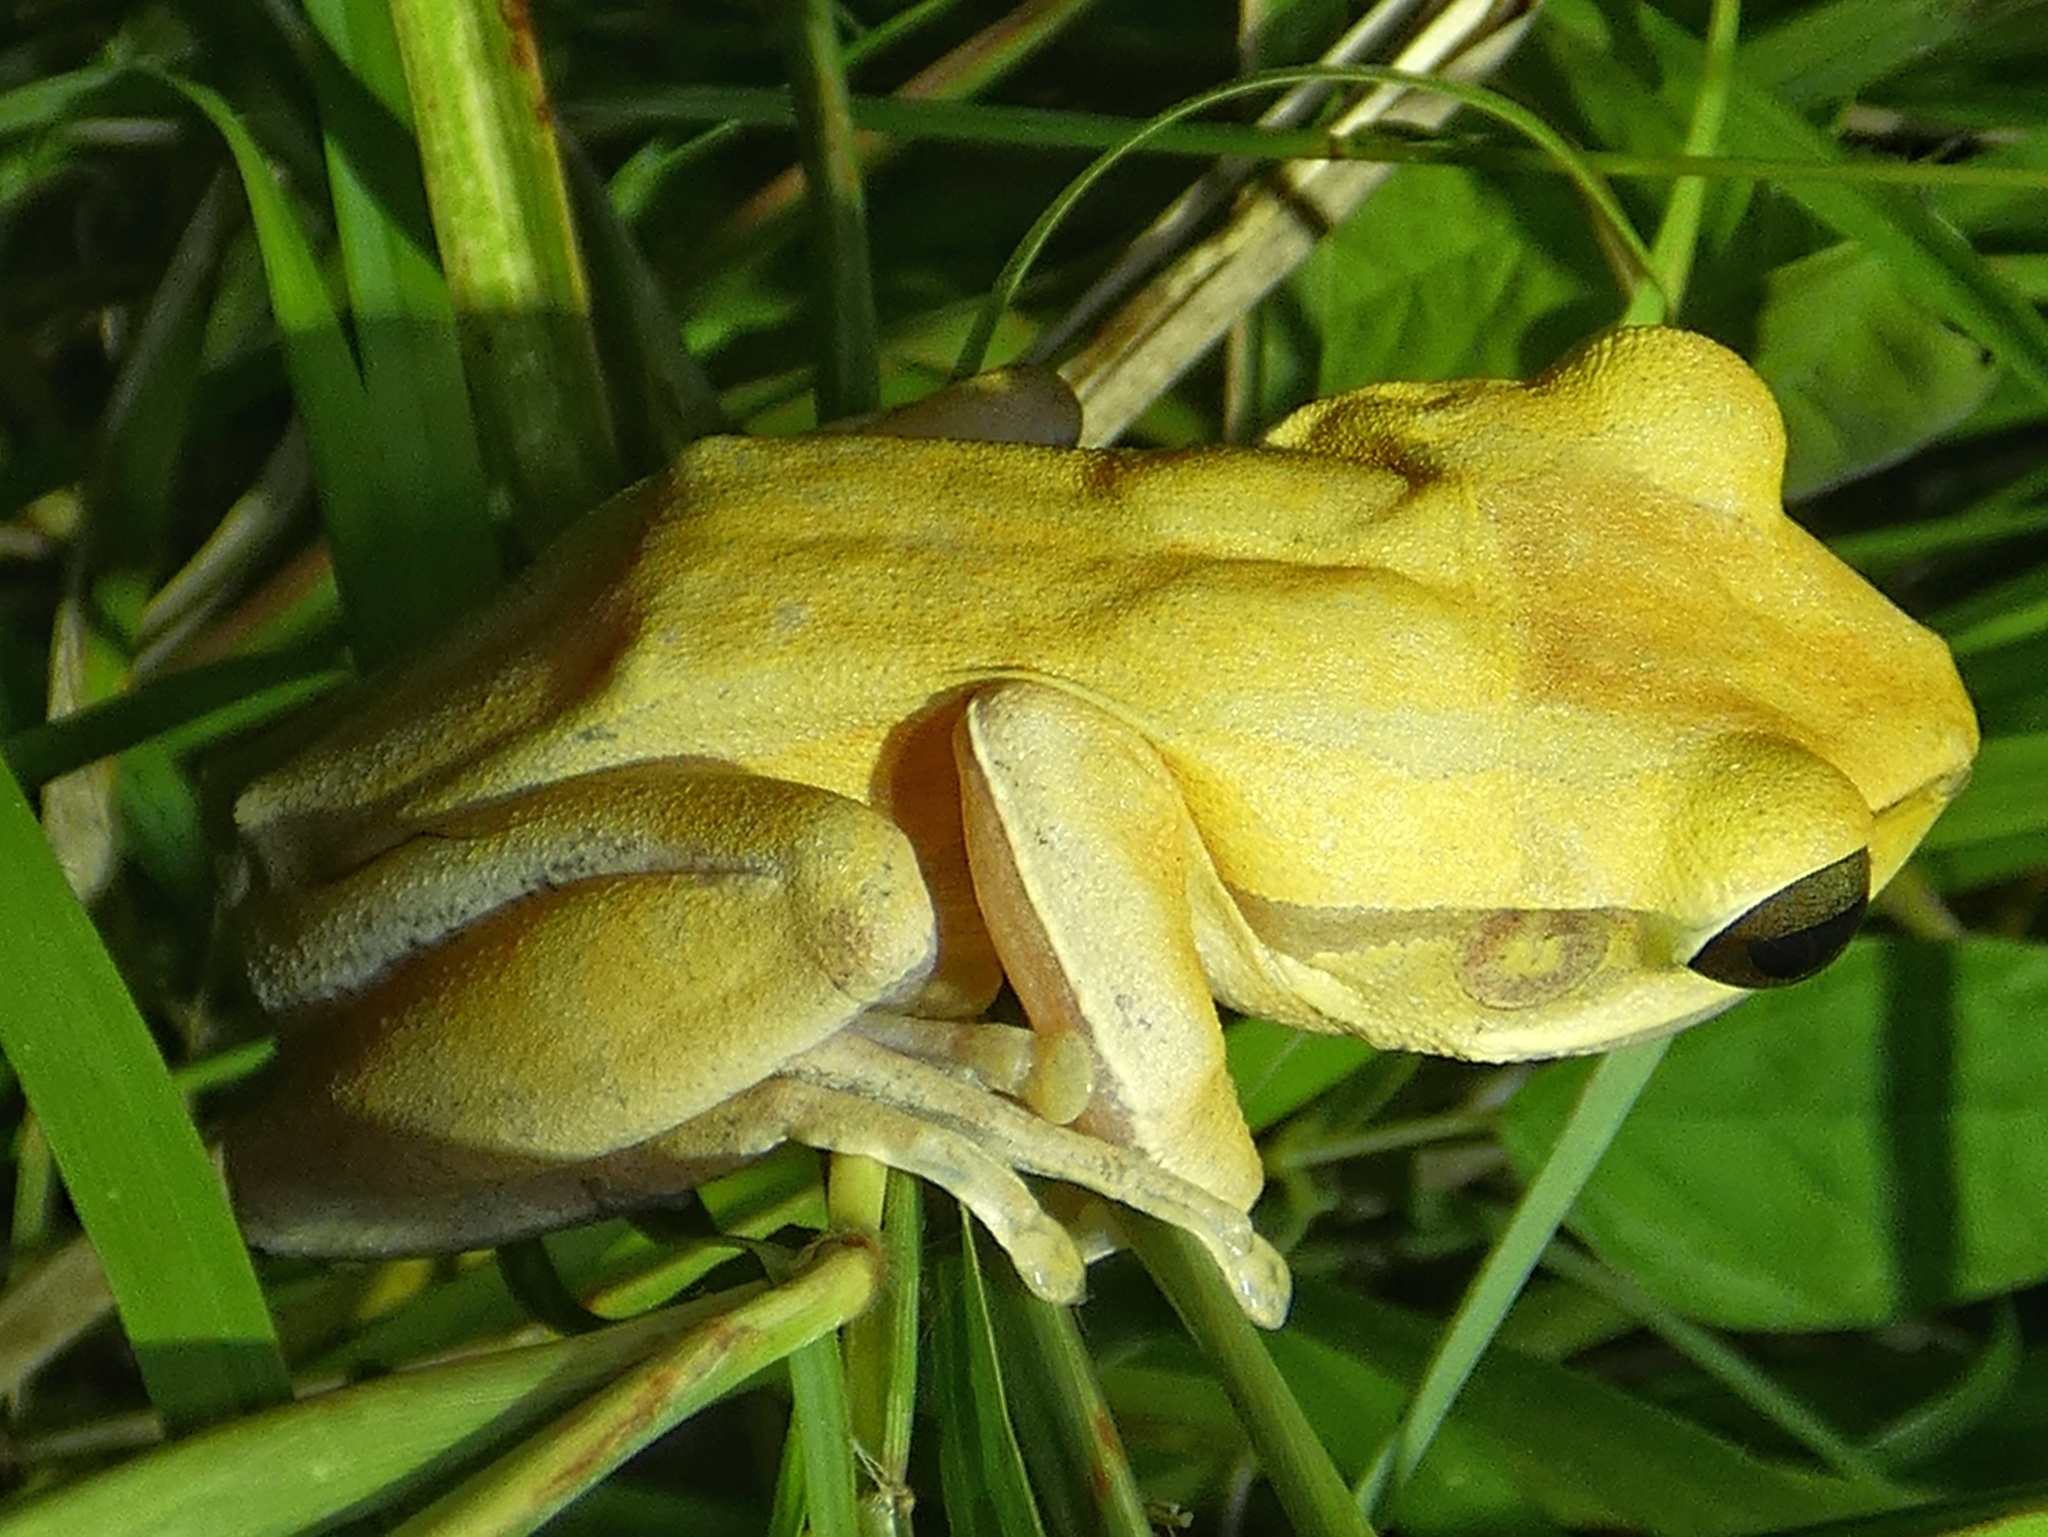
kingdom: Animalia
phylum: Chordata
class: Amphibia
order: Anura
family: Rhacophoridae
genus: Polypedates
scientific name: Polypedates leucomystax
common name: Common tree frog/four-lined tree frog
